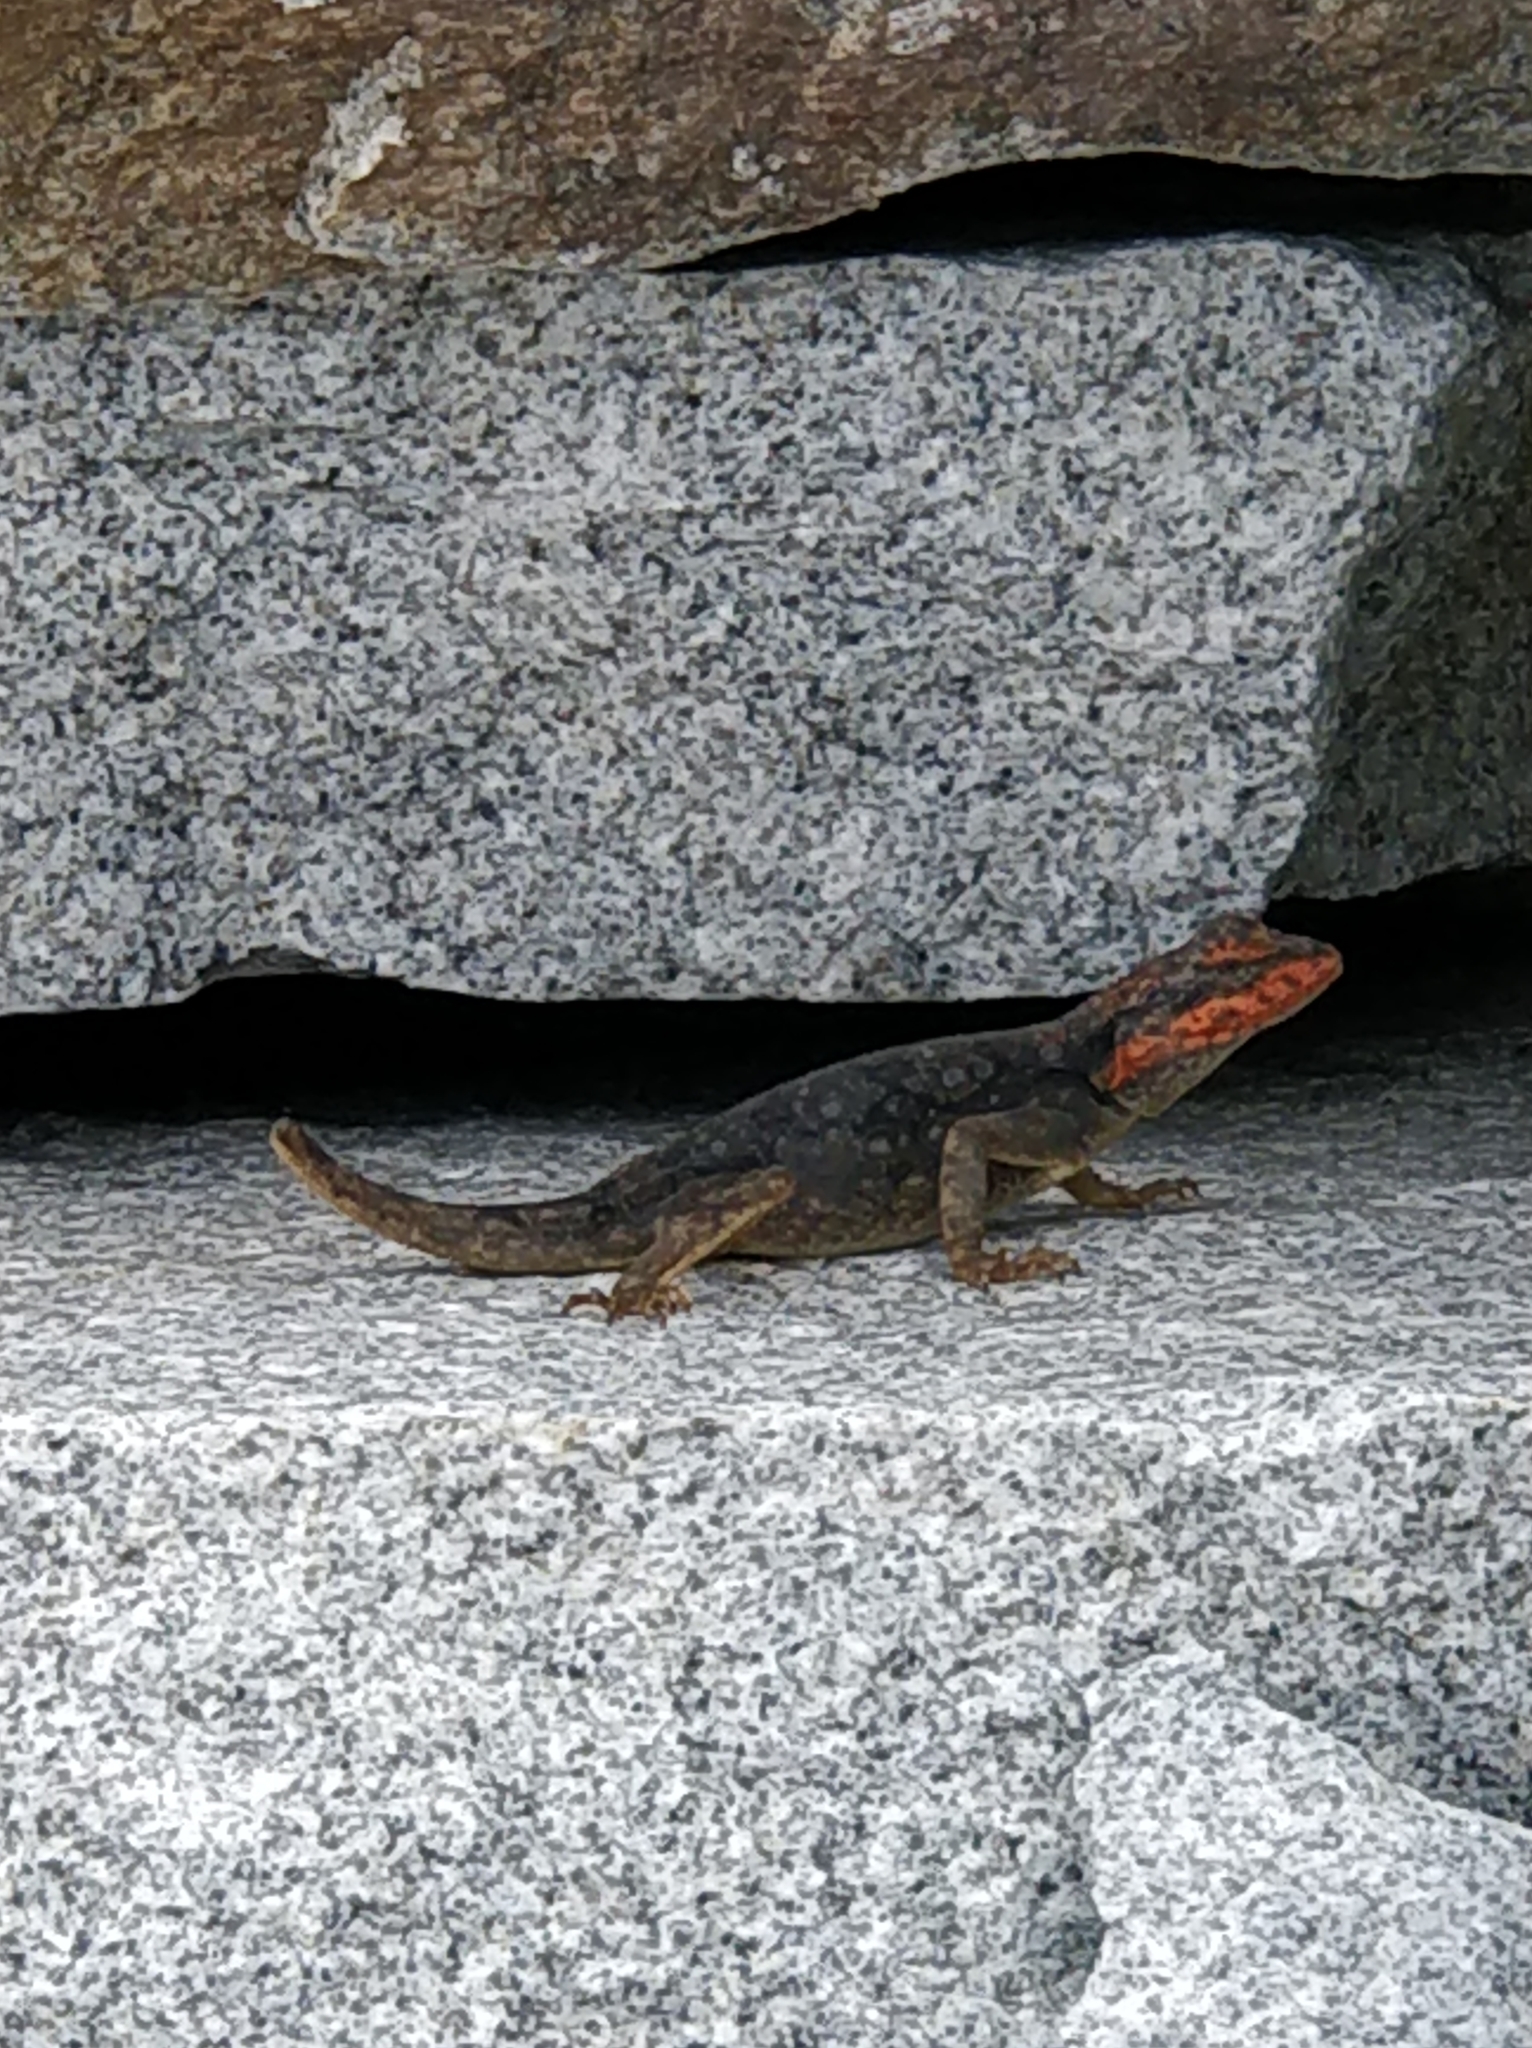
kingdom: Animalia
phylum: Chordata
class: Squamata
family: Agamidae
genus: Psammophilus
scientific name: Psammophilus dorsalis
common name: South indian rock agama
